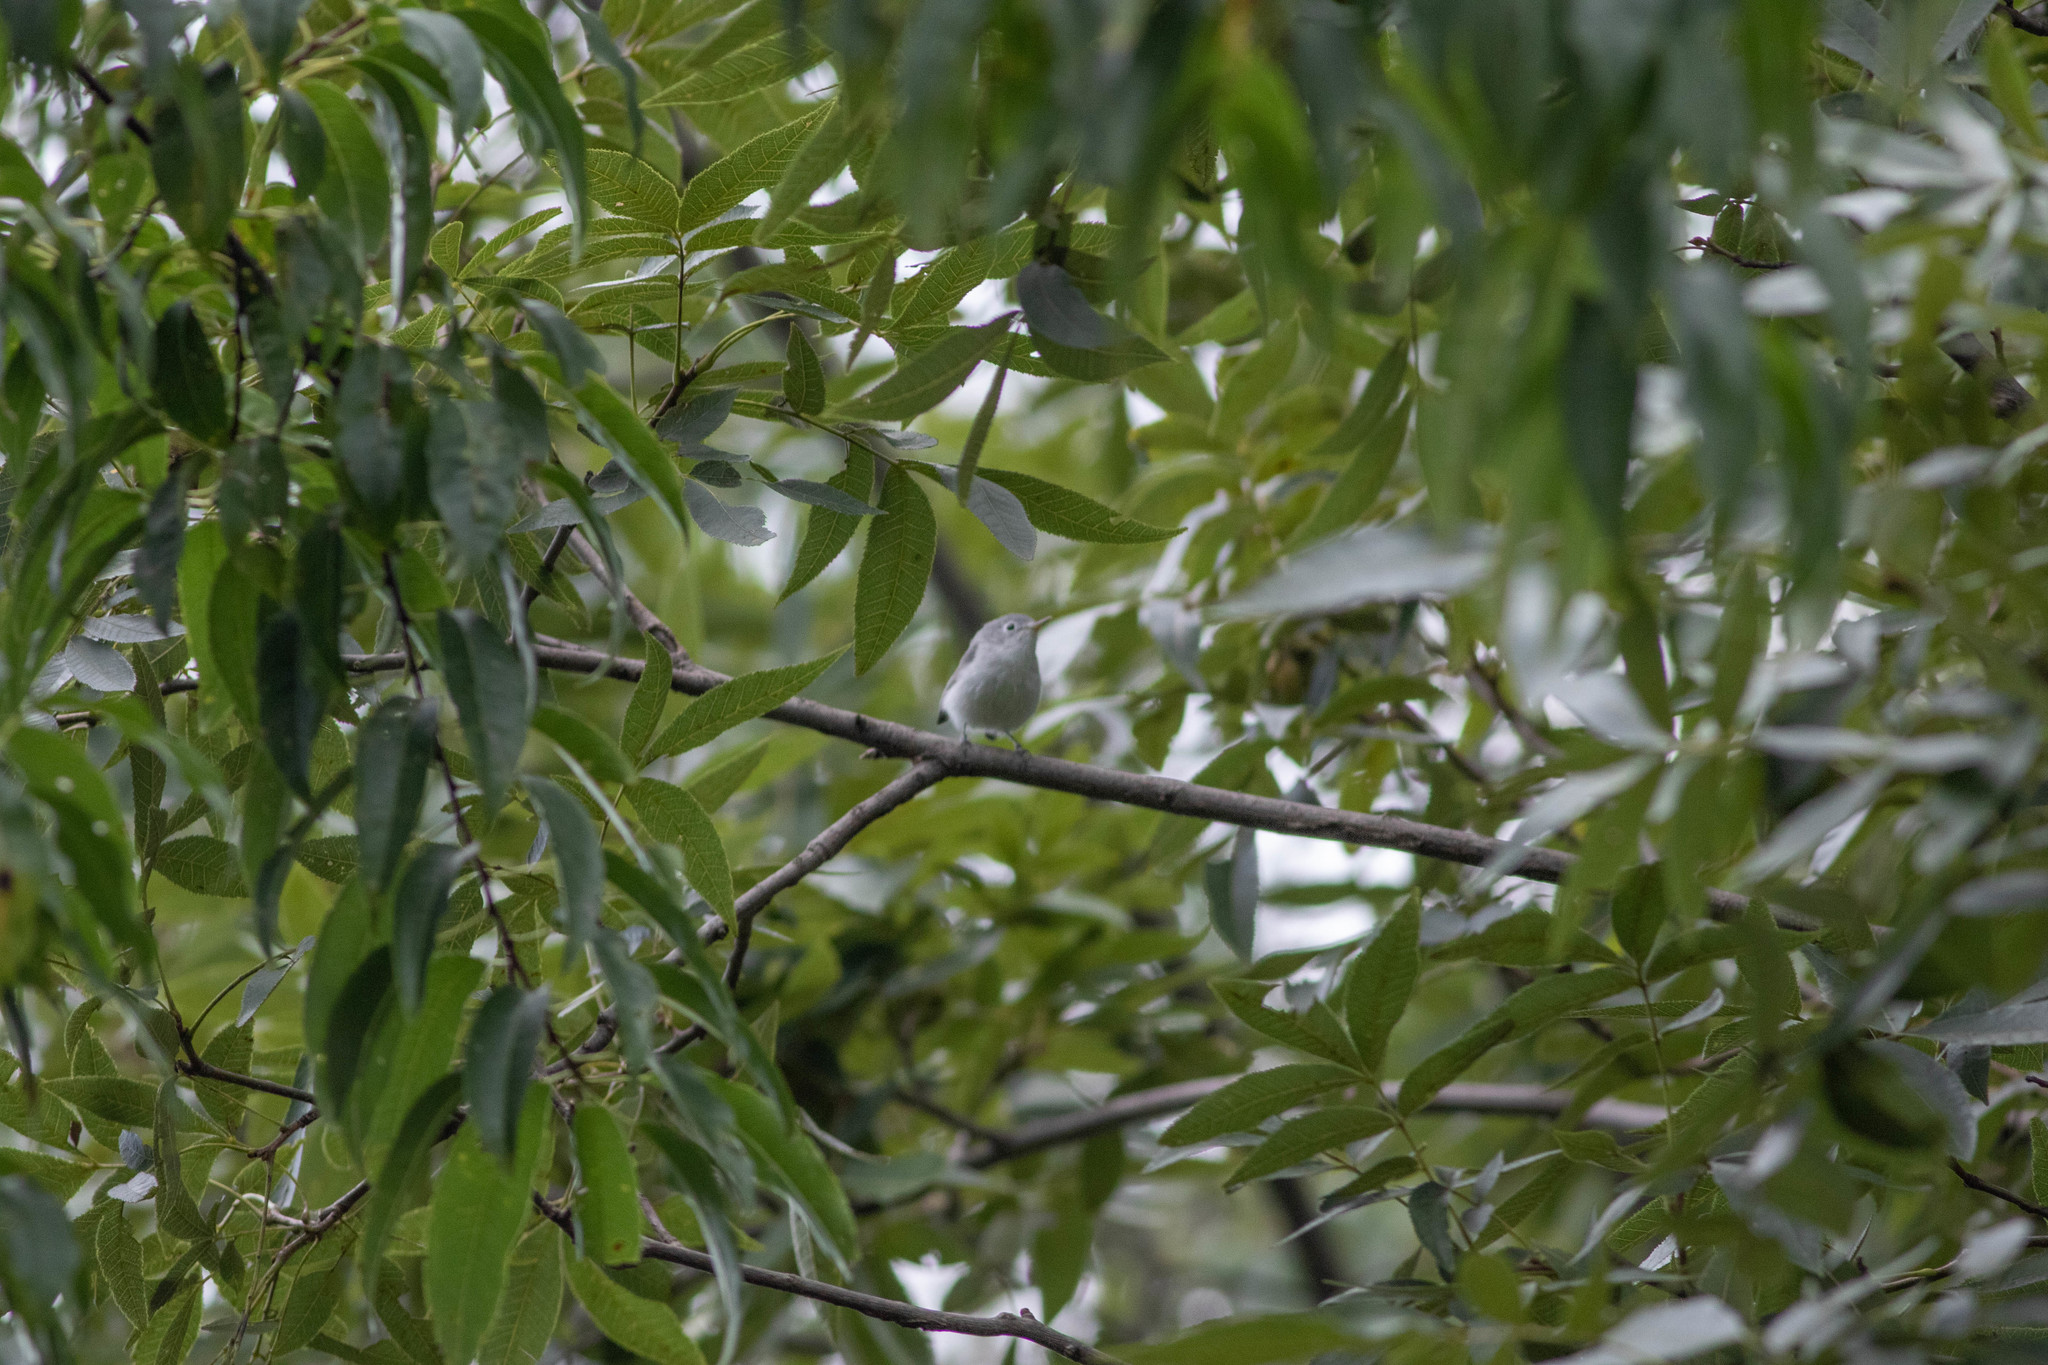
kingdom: Animalia
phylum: Chordata
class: Aves
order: Passeriformes
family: Polioptilidae
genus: Polioptila
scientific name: Polioptila caerulea
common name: Blue-gray gnatcatcher
